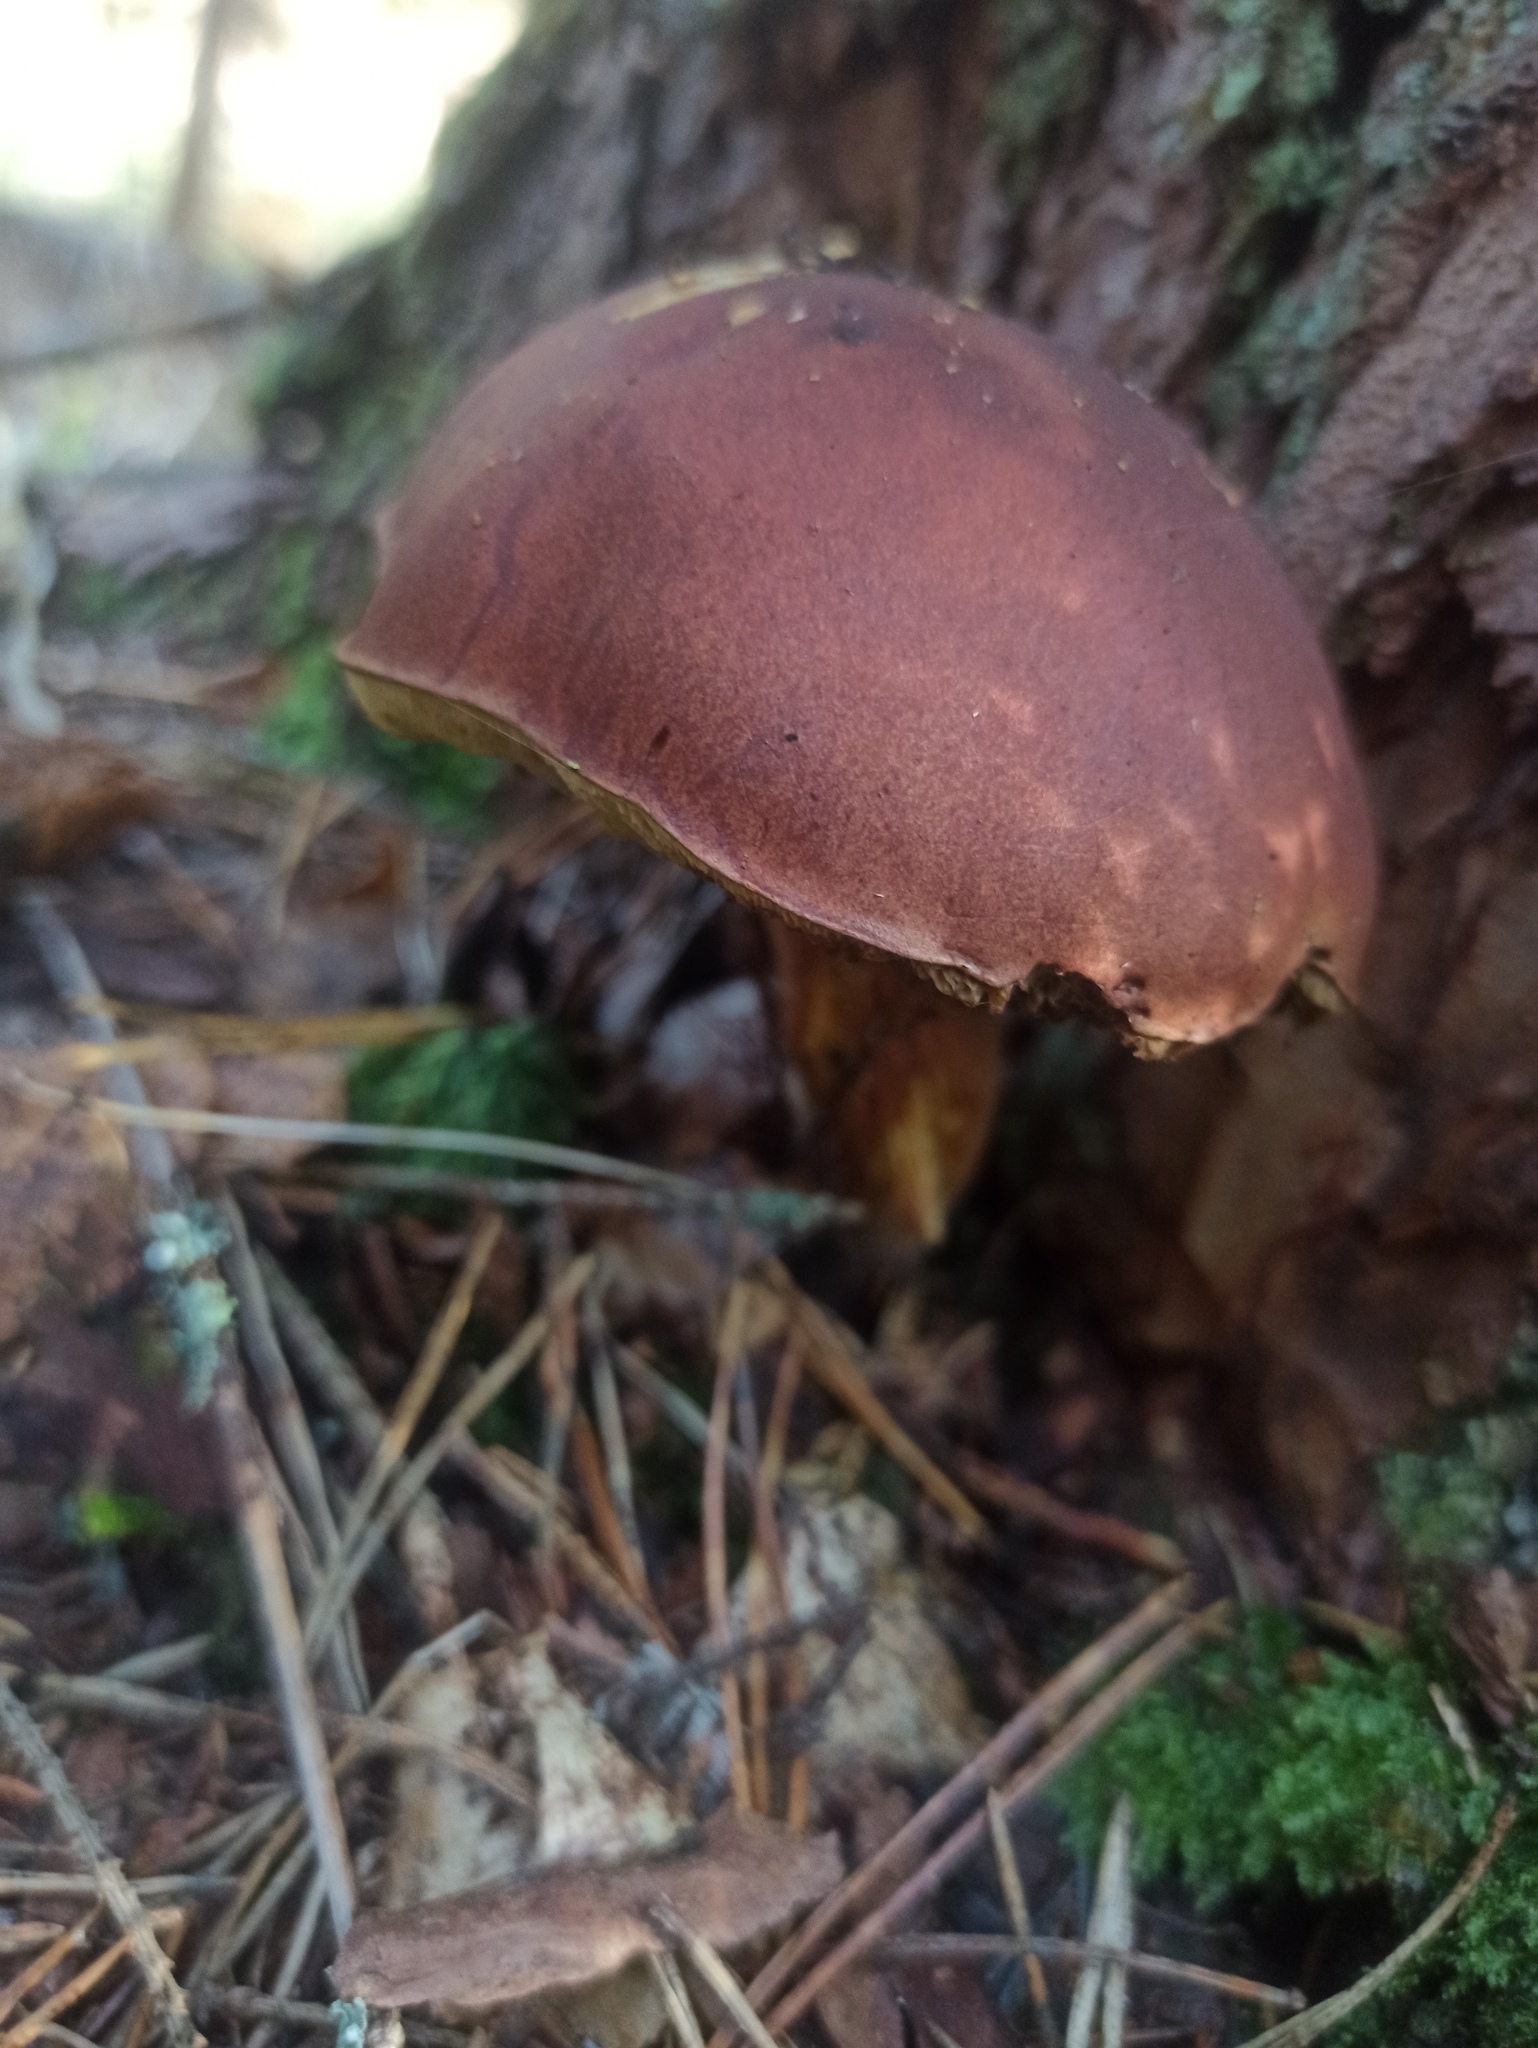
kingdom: Fungi
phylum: Basidiomycota
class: Agaricomycetes
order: Boletales
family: Boletaceae
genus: Imleria
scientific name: Imleria badia
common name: Bay bolete
